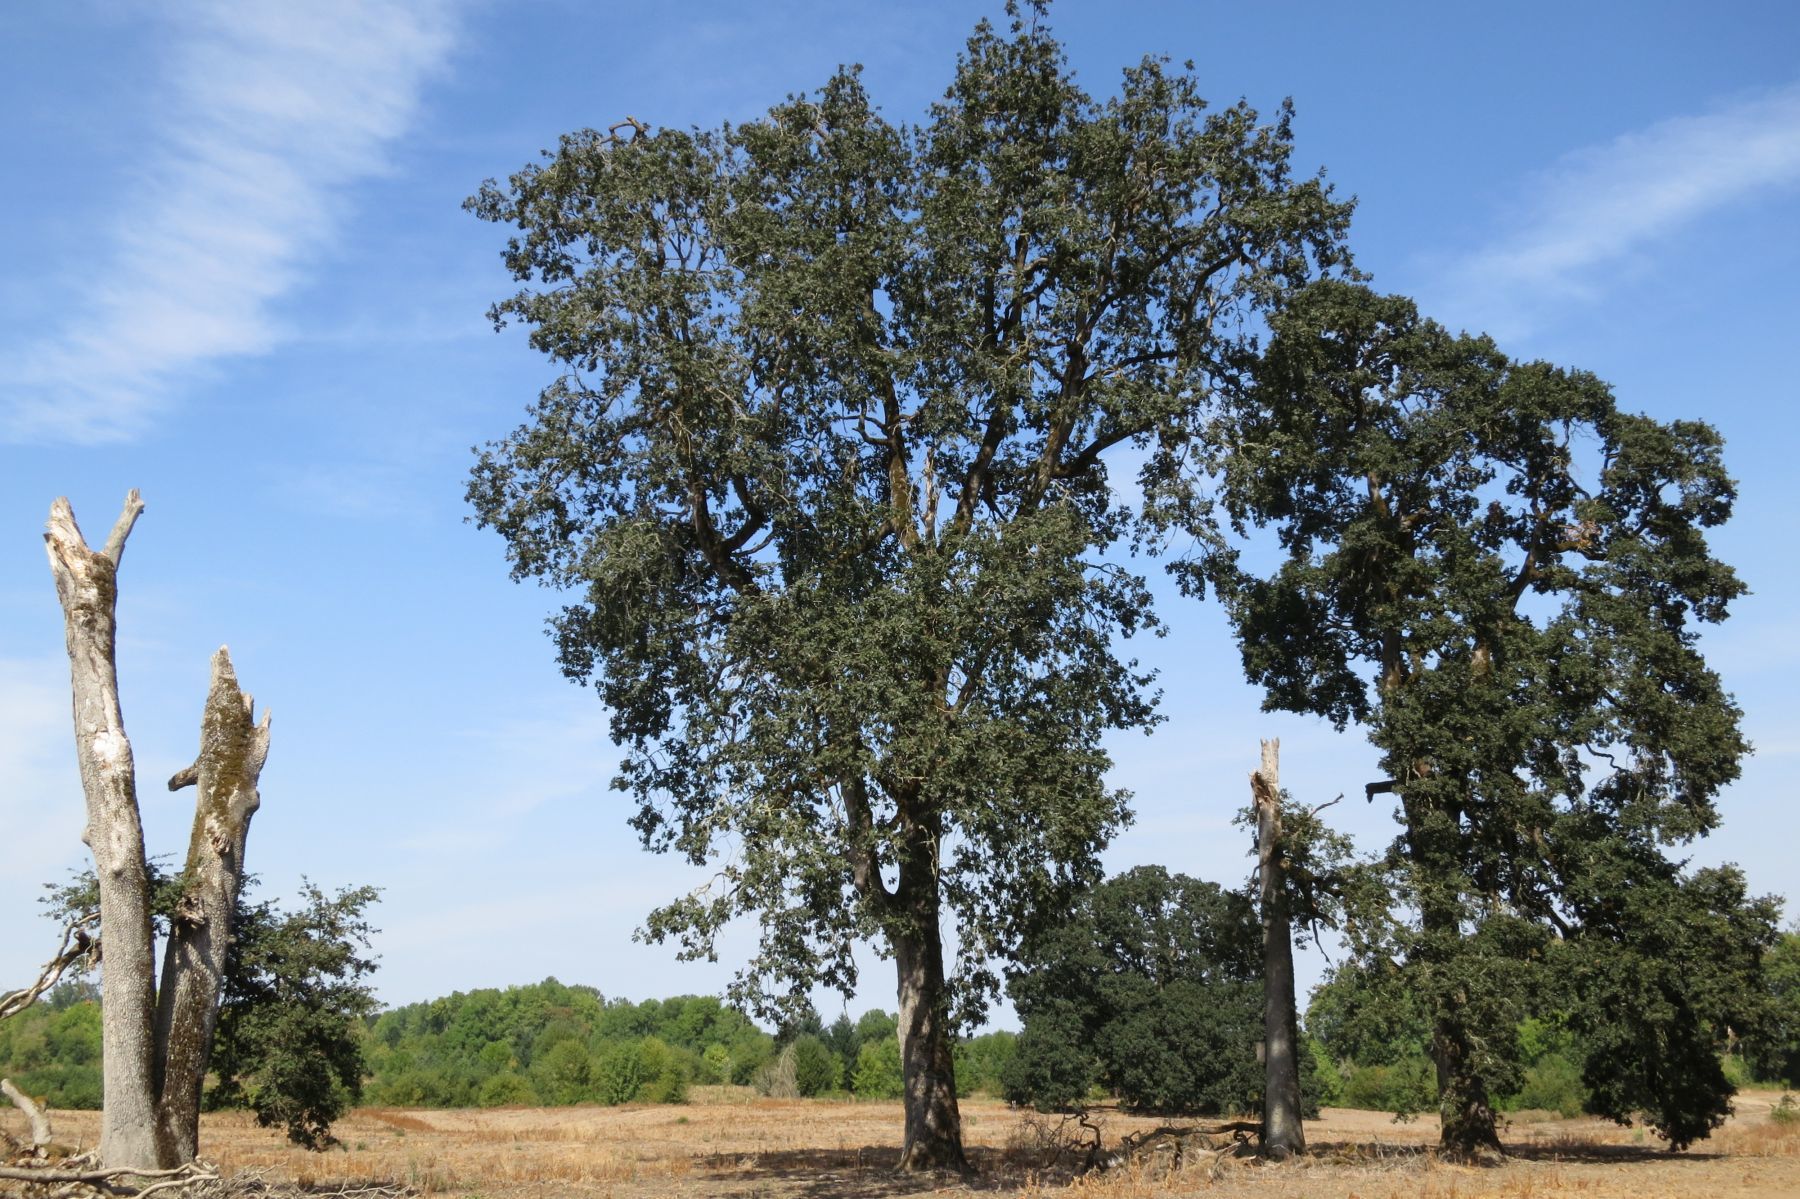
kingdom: Plantae
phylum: Tracheophyta
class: Magnoliopsida
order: Fagales
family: Fagaceae
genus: Quercus
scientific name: Quercus garryana
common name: Garry oak
